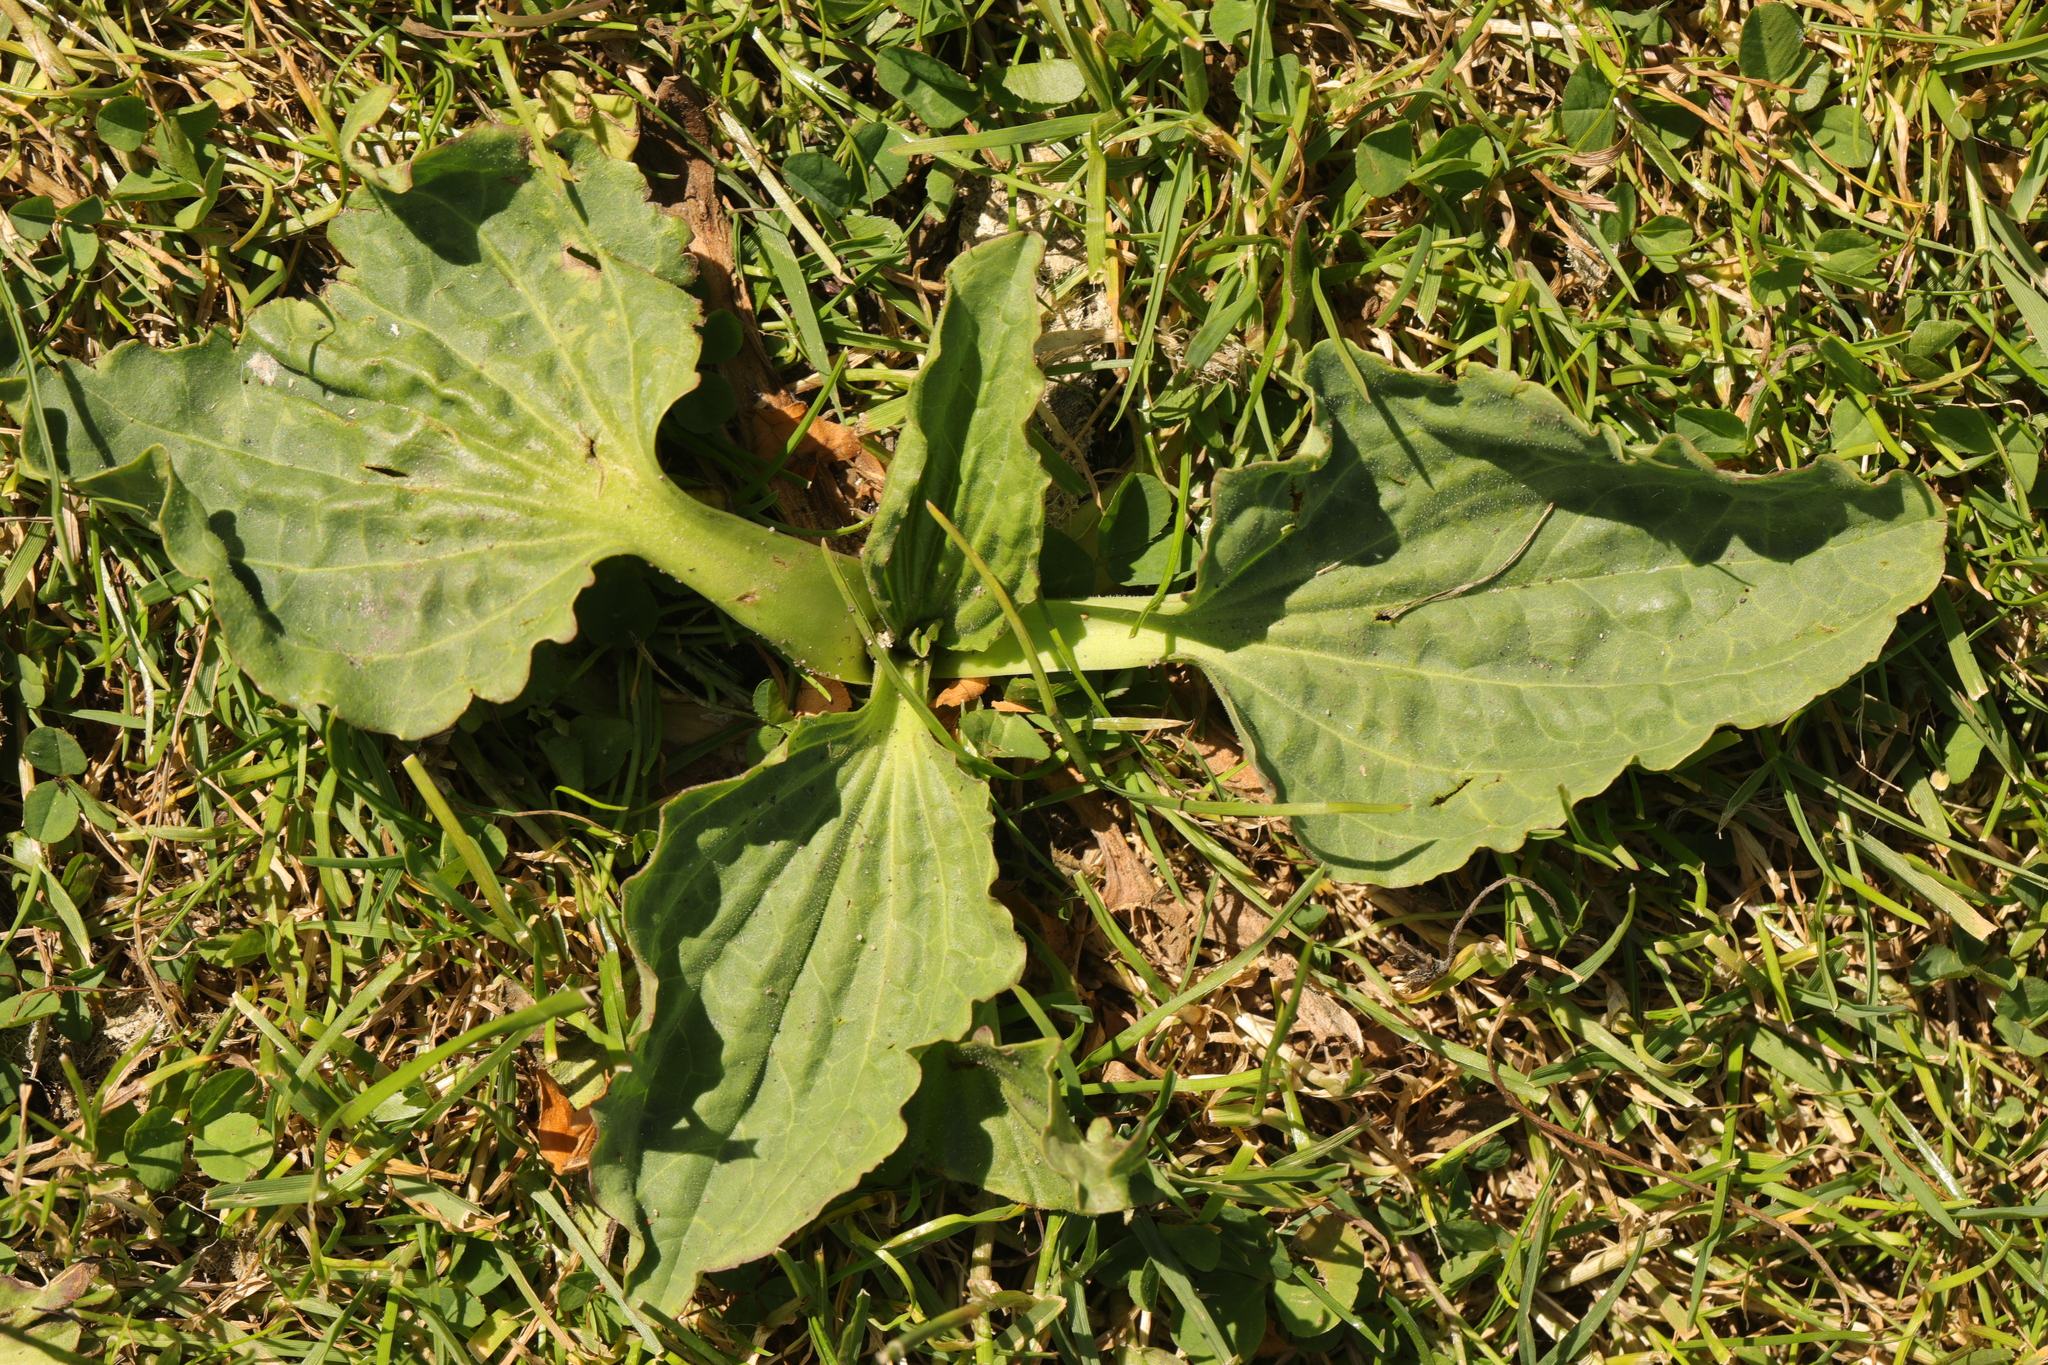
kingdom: Plantae
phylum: Tracheophyta
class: Magnoliopsida
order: Lamiales
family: Plantaginaceae
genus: Plantago
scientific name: Plantago major
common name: Common plantain
